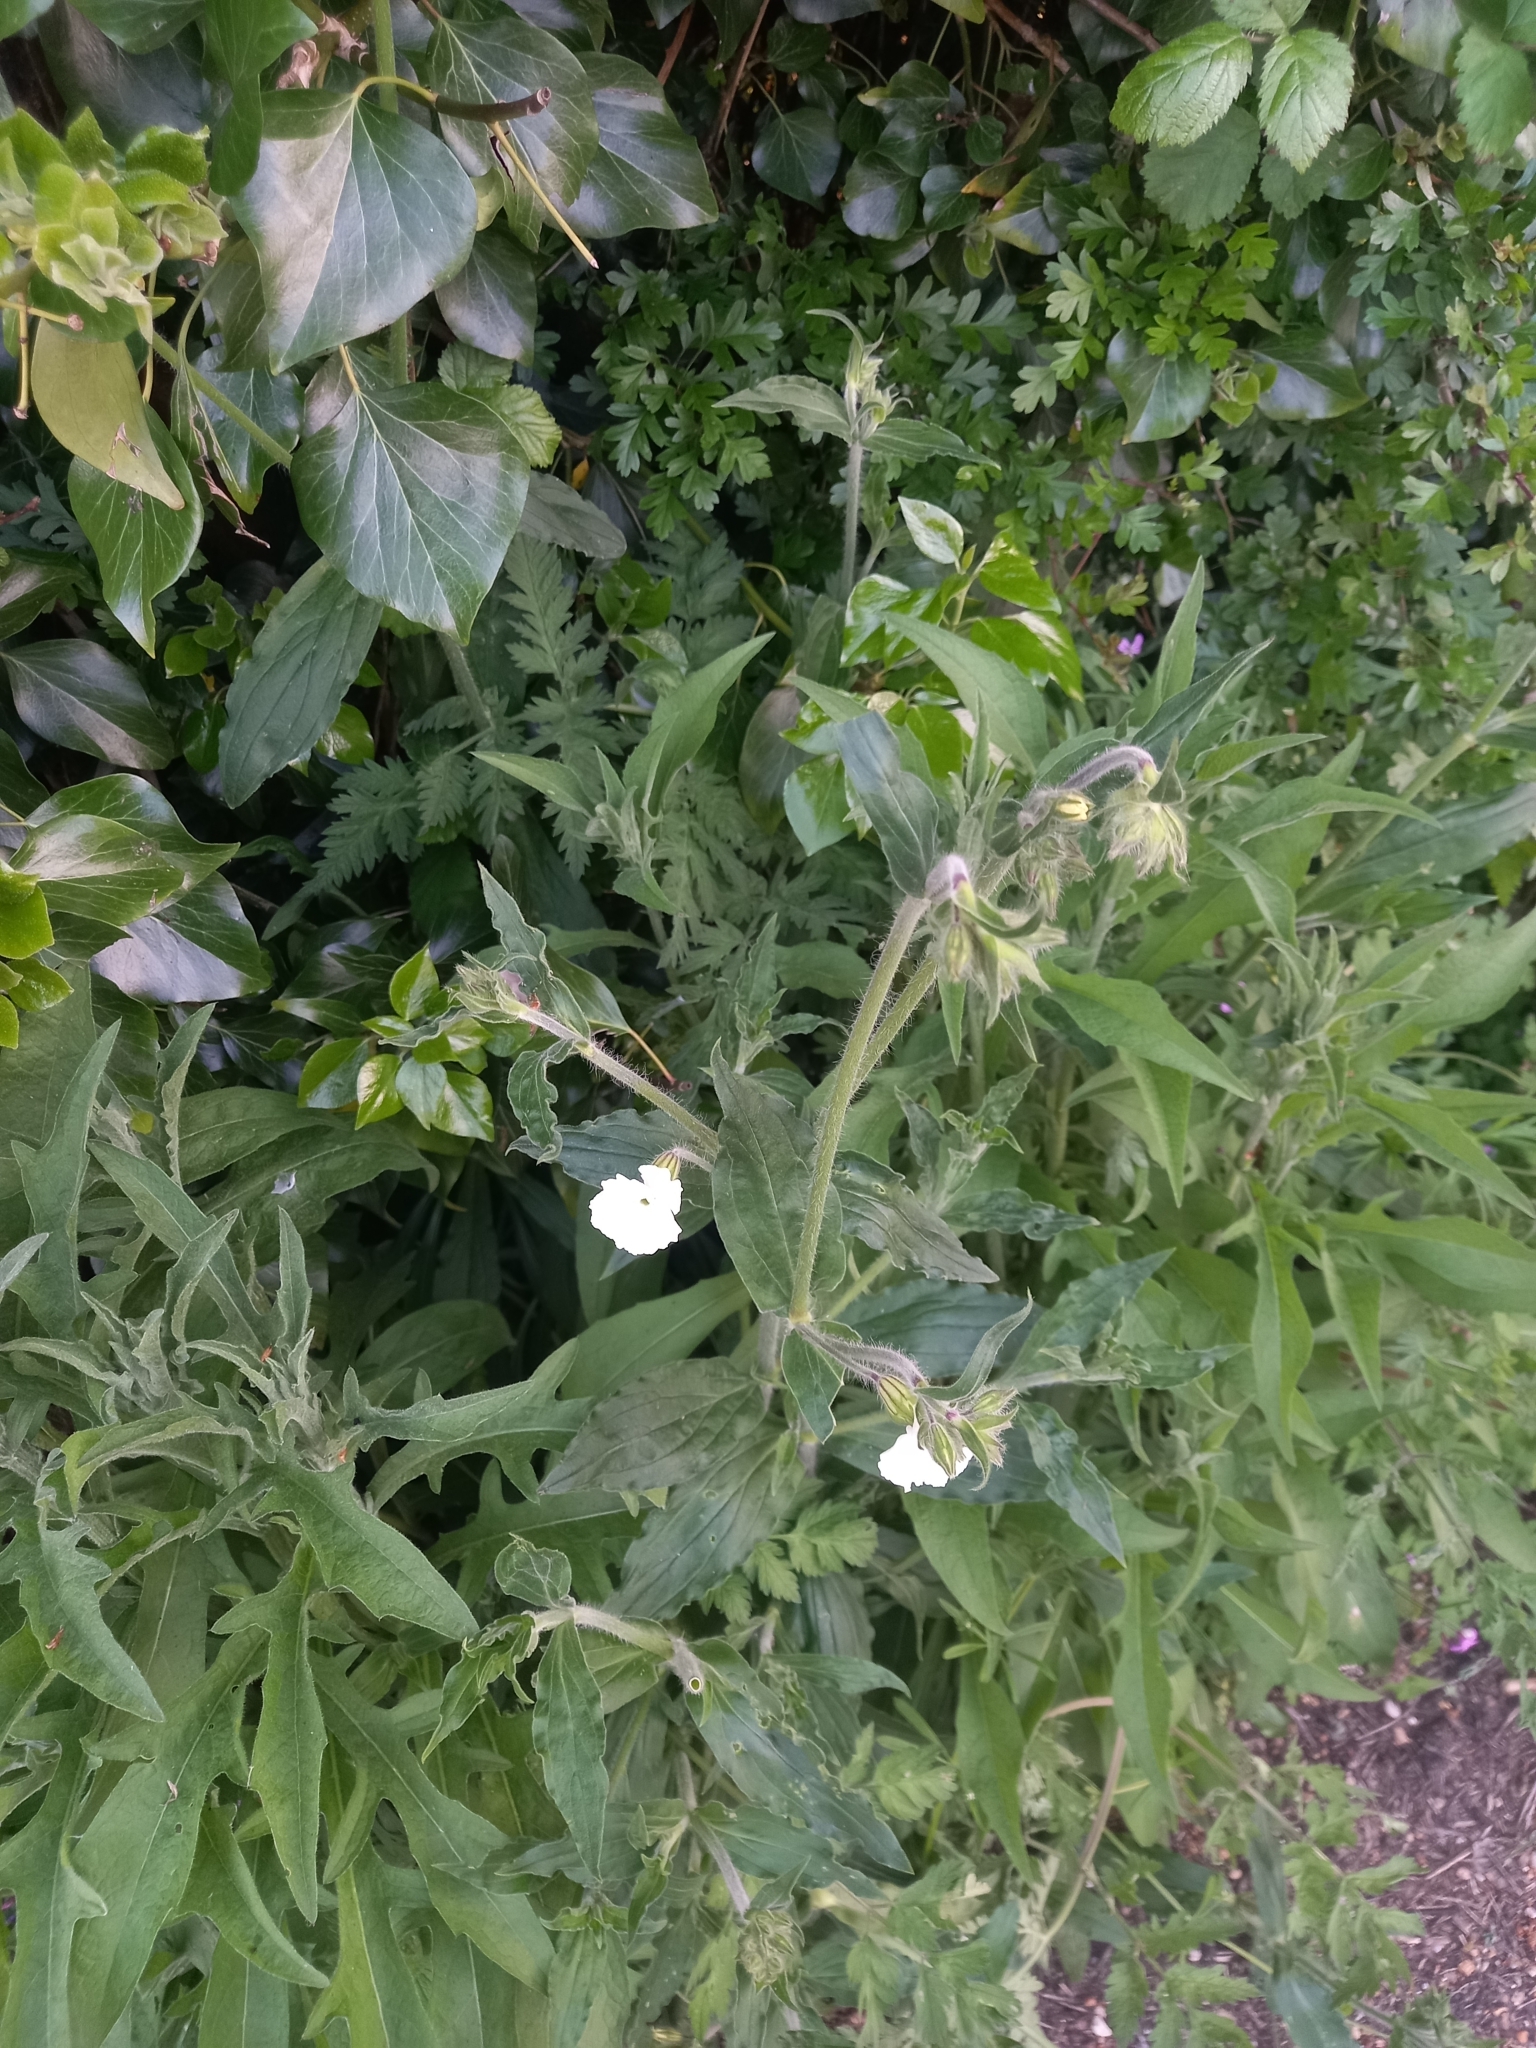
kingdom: Plantae
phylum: Tracheophyta
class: Magnoliopsida
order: Caryophyllales
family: Caryophyllaceae
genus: Silene
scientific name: Silene latifolia
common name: White campion
